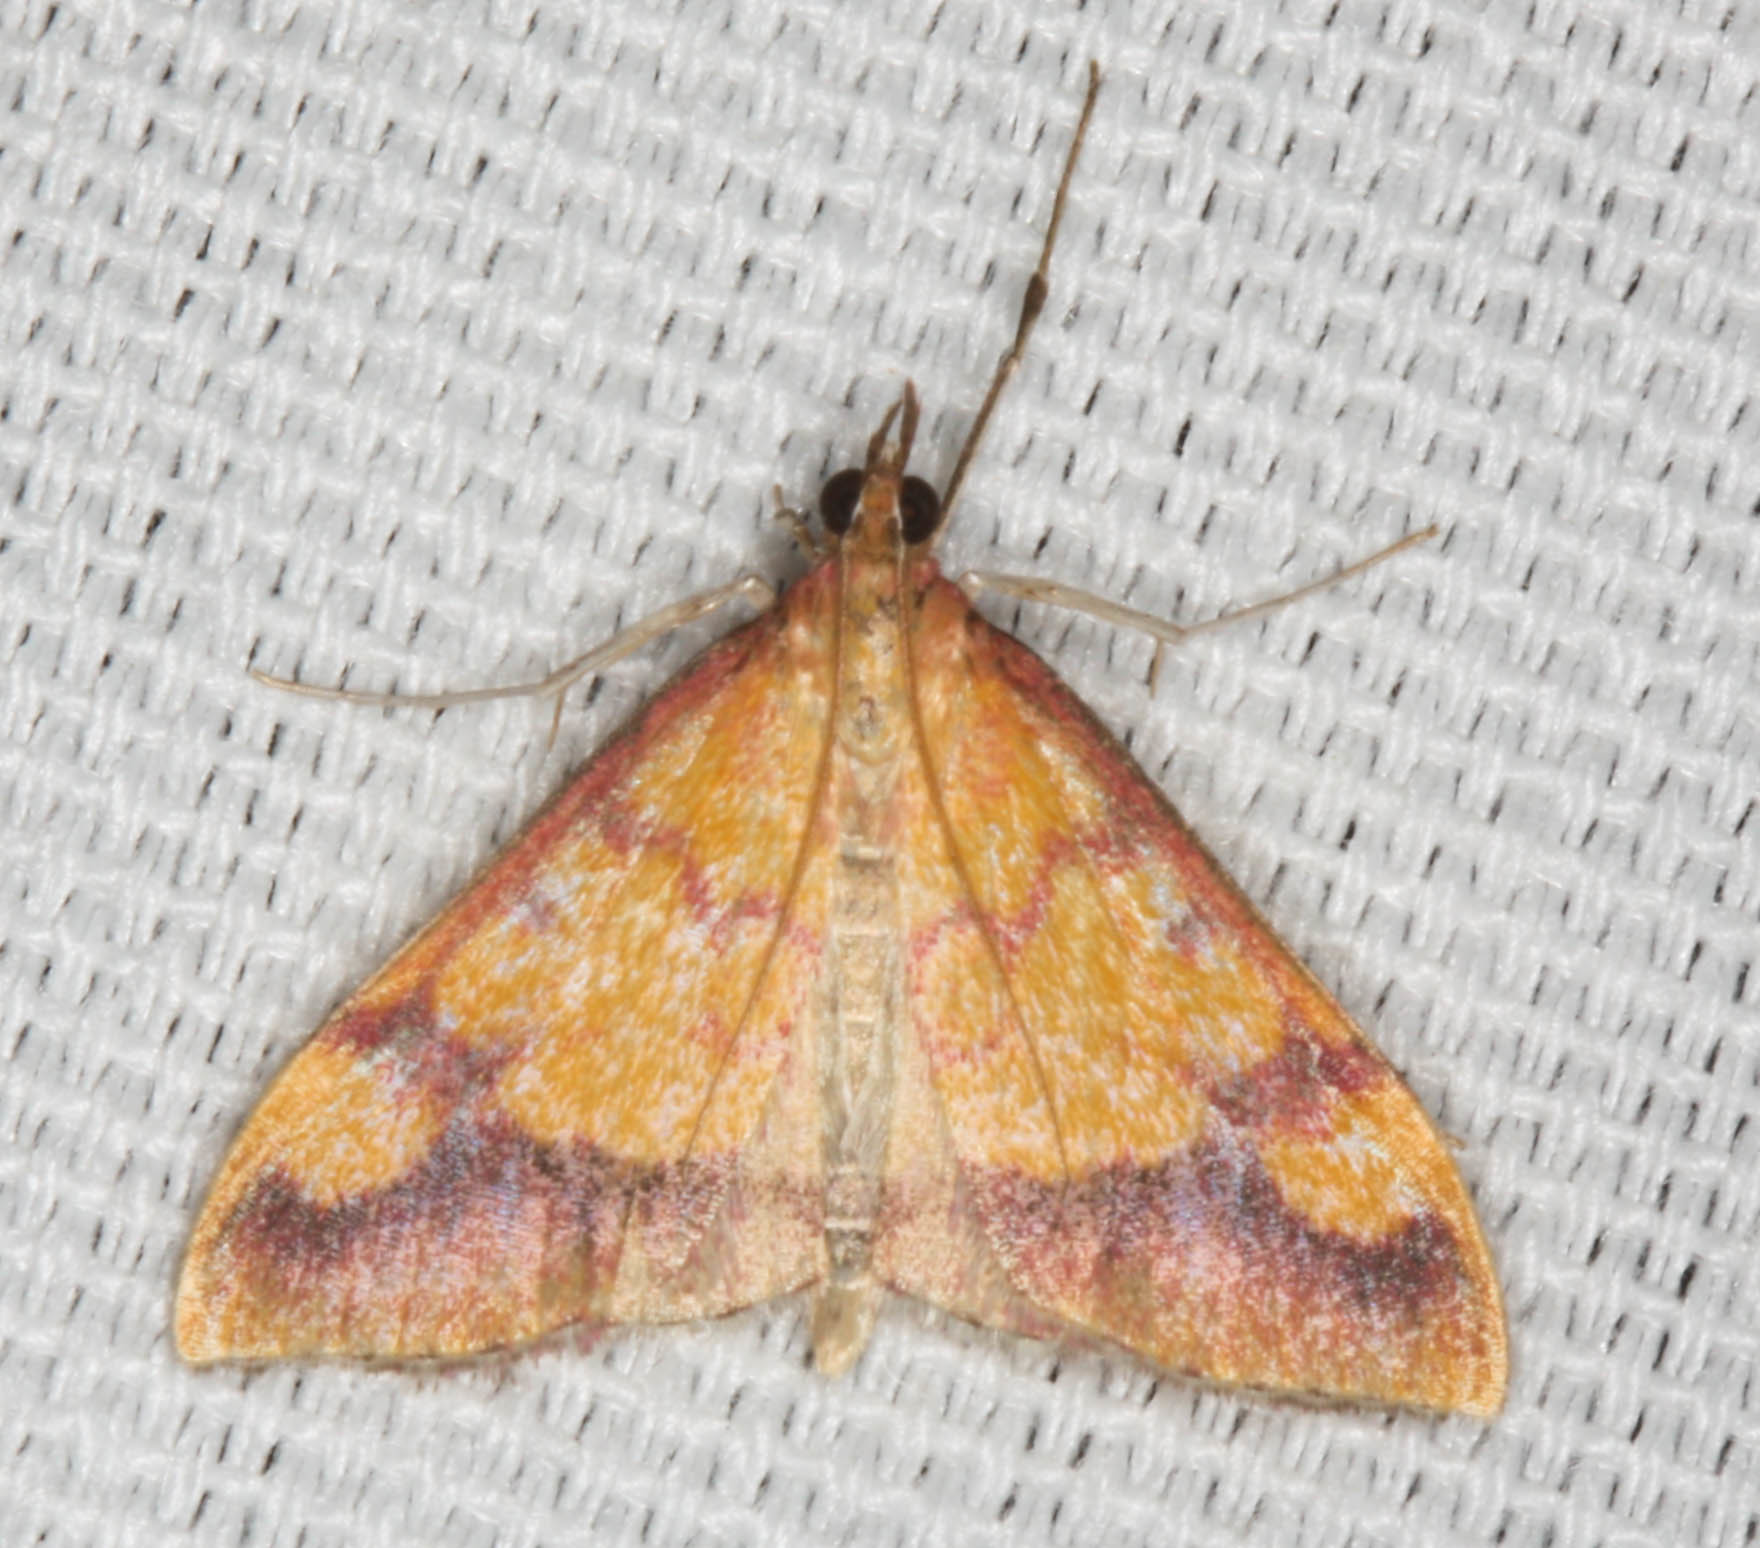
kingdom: Animalia
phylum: Arthropoda
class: Insecta
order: Lepidoptera
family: Crambidae
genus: Pyrausta
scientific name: Pyrausta perrubralis
